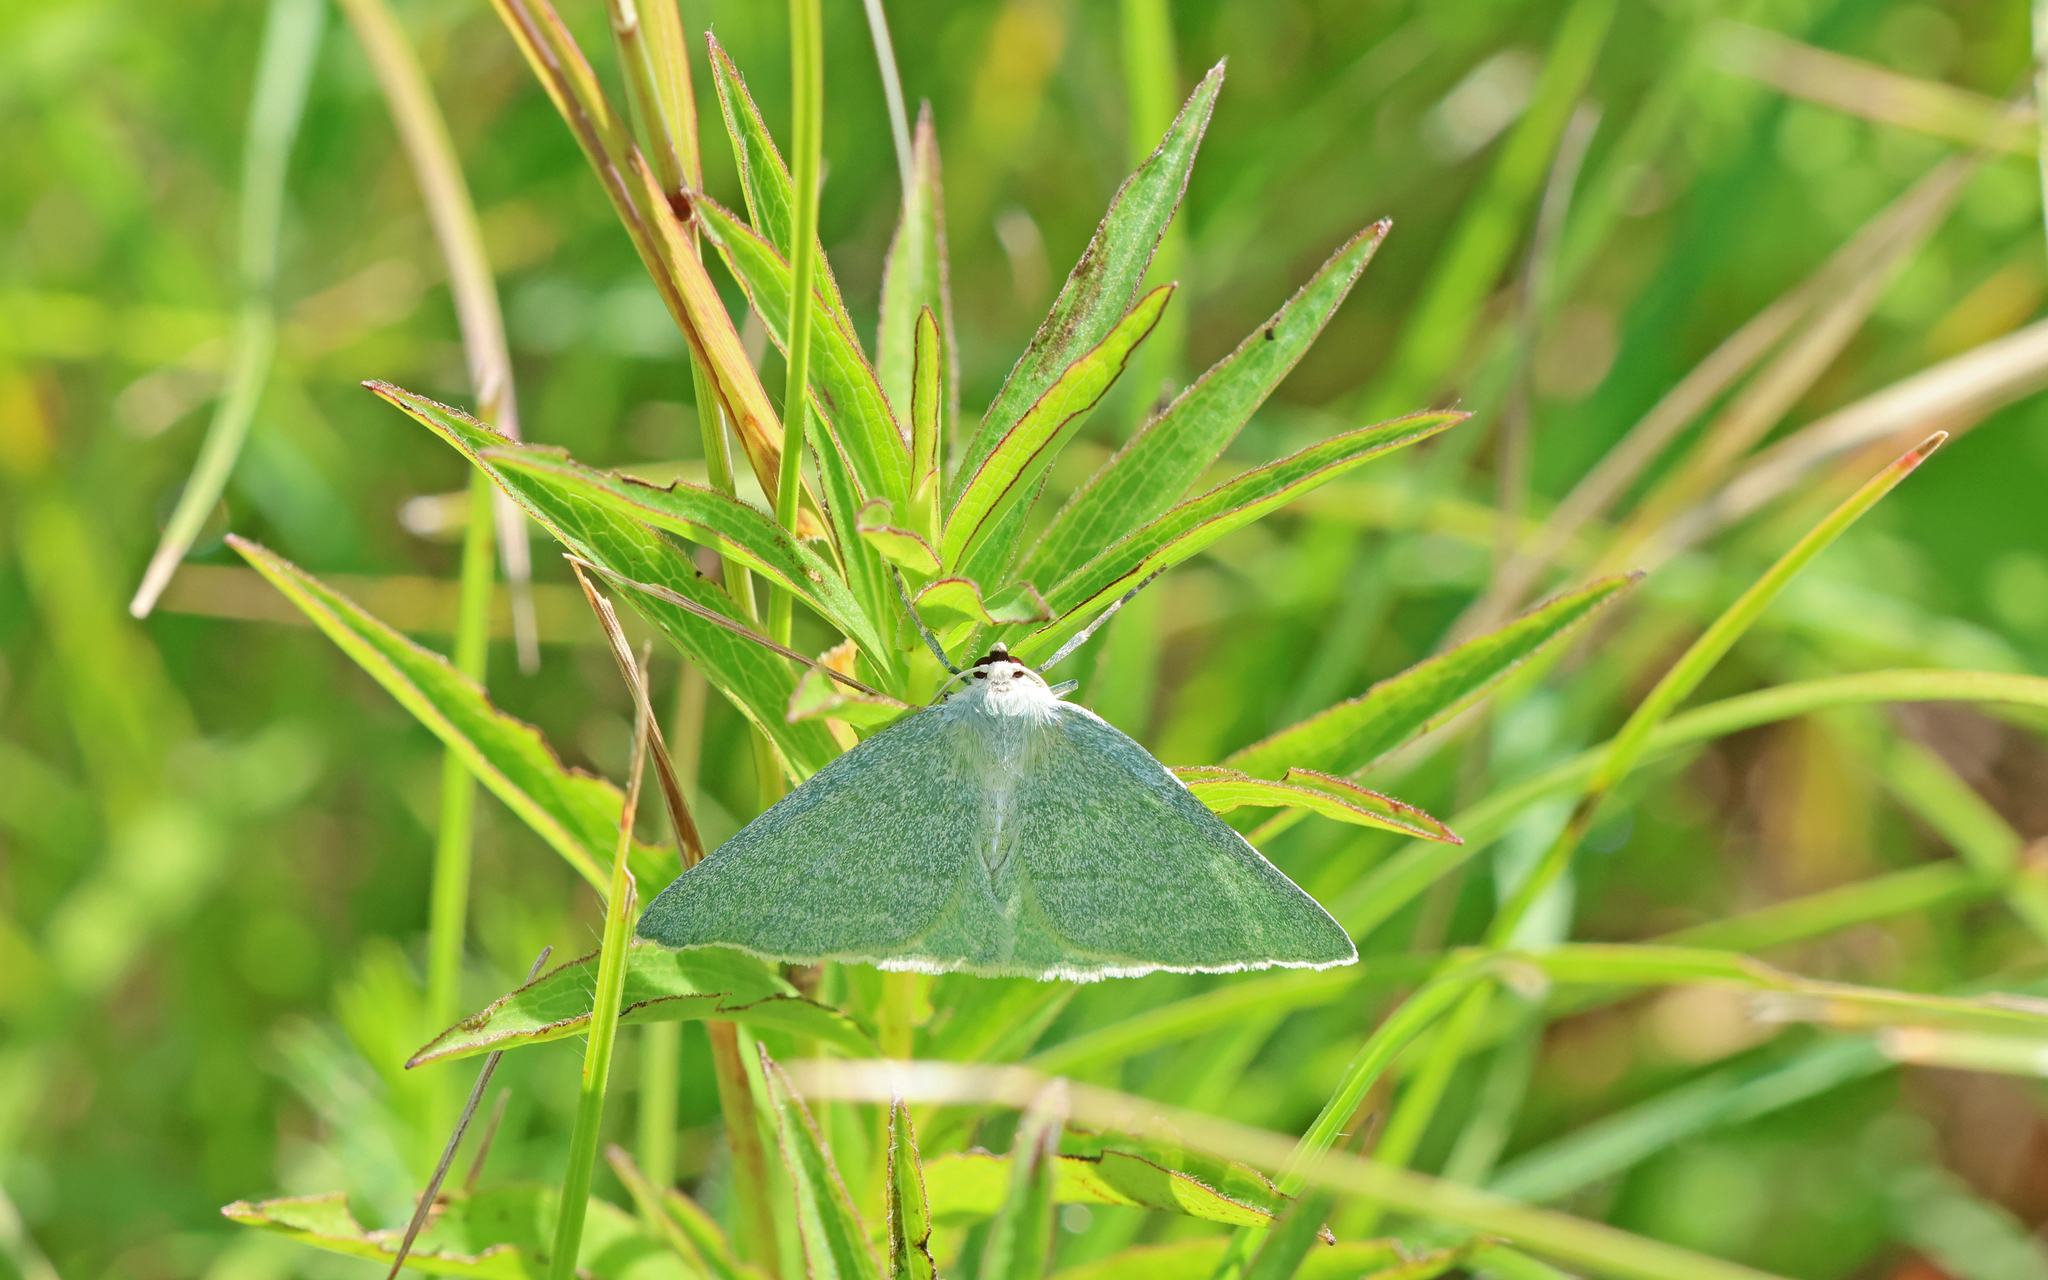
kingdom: Animalia
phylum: Arthropoda
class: Insecta
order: Lepidoptera
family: Geometridae
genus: Pseudoterpna
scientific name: Pseudoterpna pruinata
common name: Grass emerald
